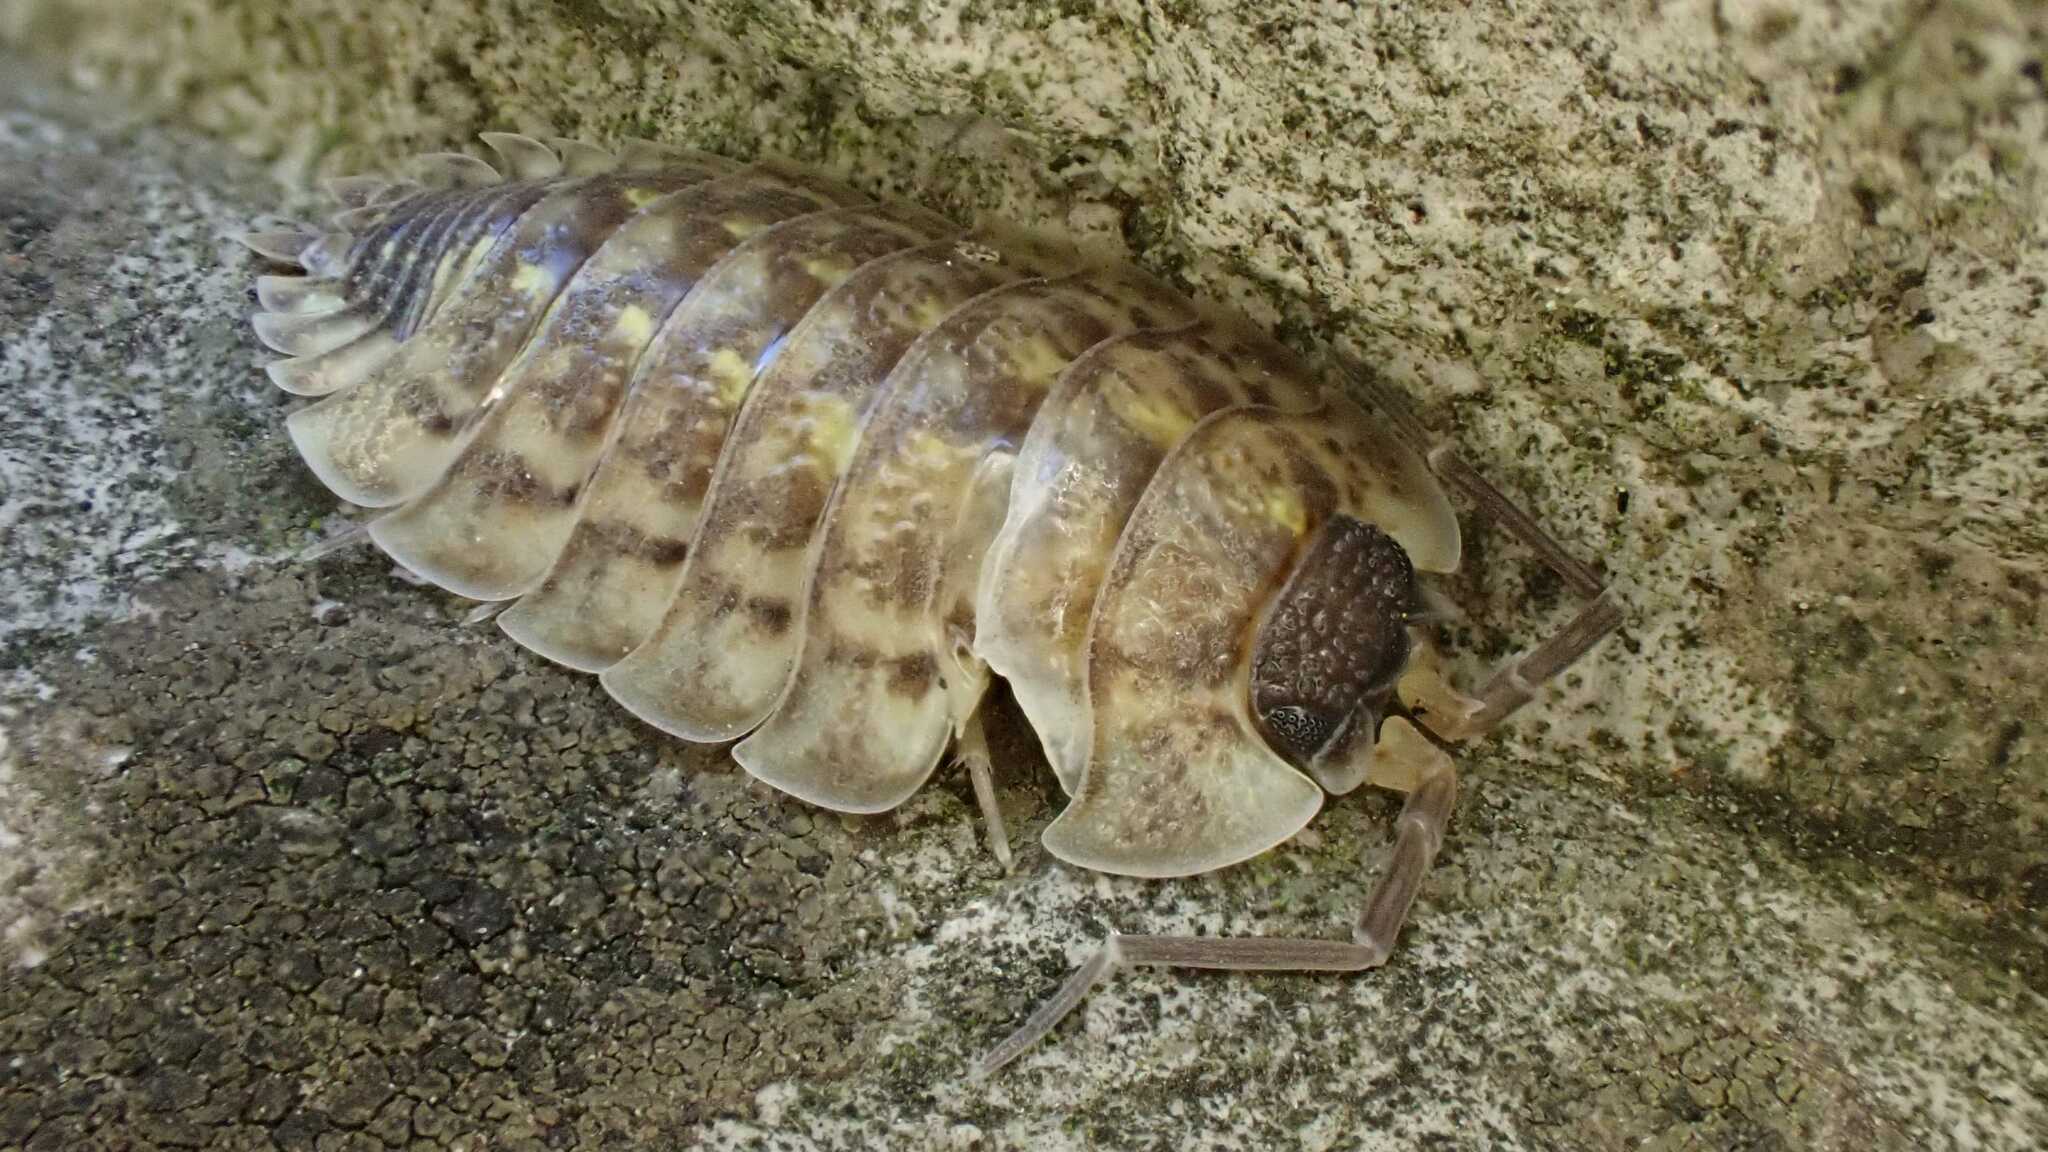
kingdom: Animalia
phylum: Arthropoda
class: Malacostraca
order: Isopoda
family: Porcellionidae
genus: Porcellio
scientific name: Porcellio spinicornis
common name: Painted woodlouse
